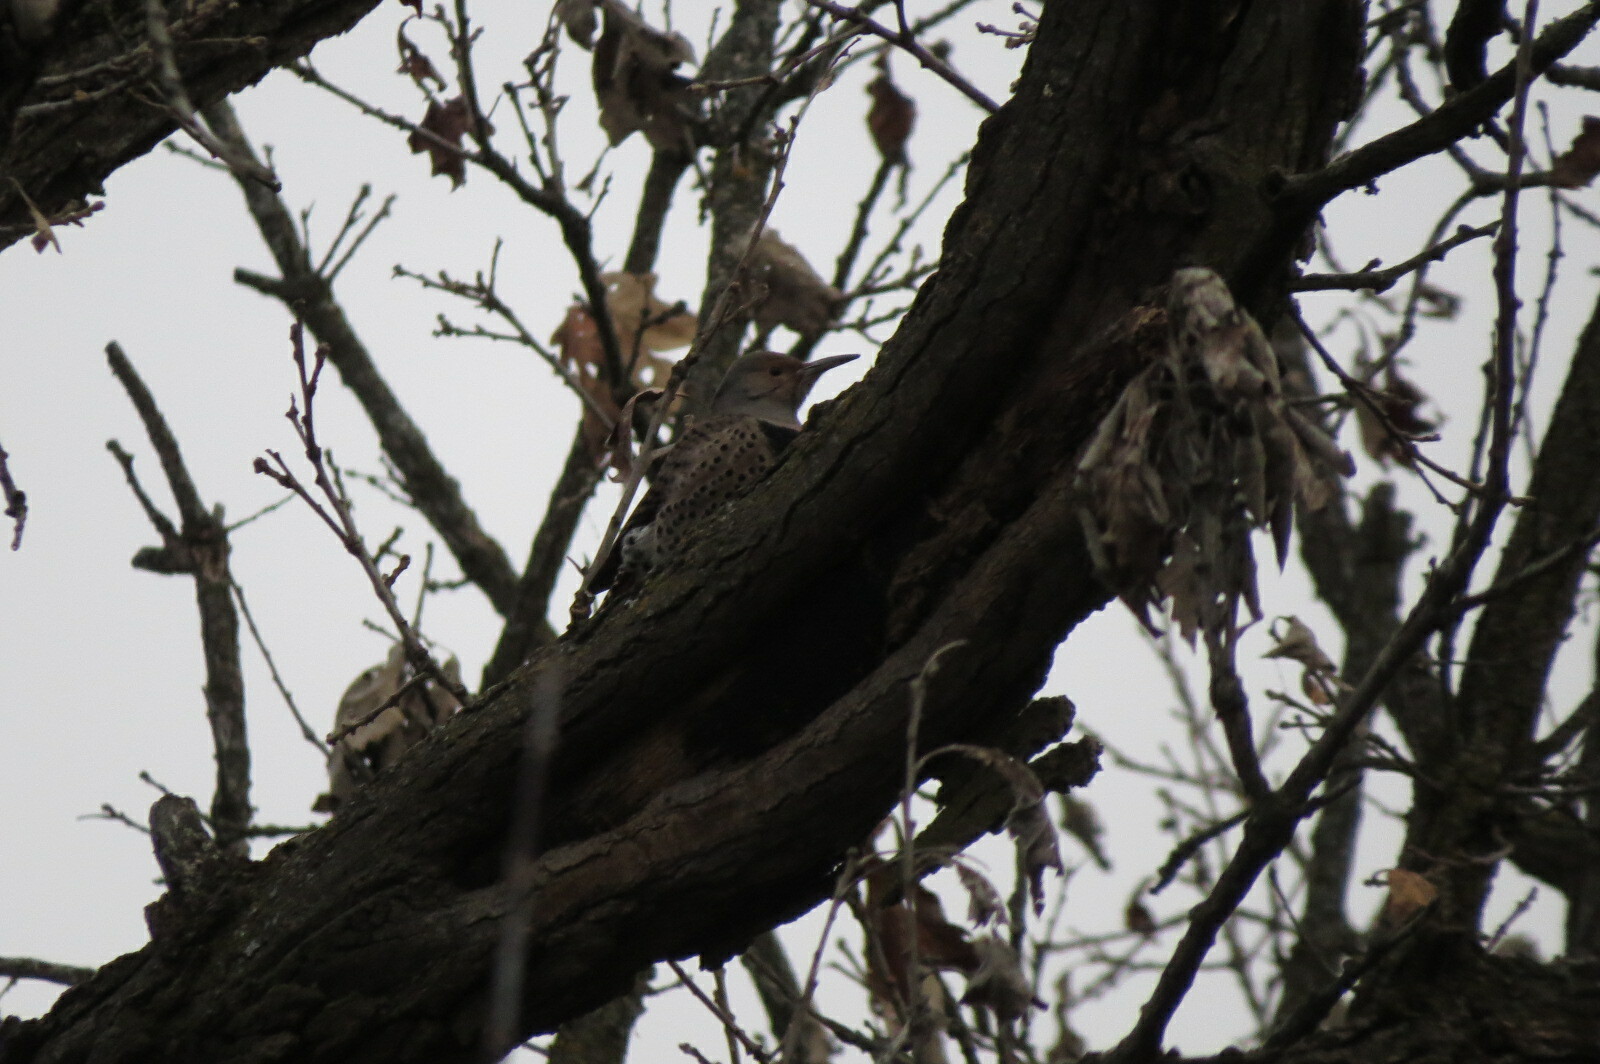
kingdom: Animalia
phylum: Chordata
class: Aves
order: Piciformes
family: Picidae
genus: Colaptes
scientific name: Colaptes
